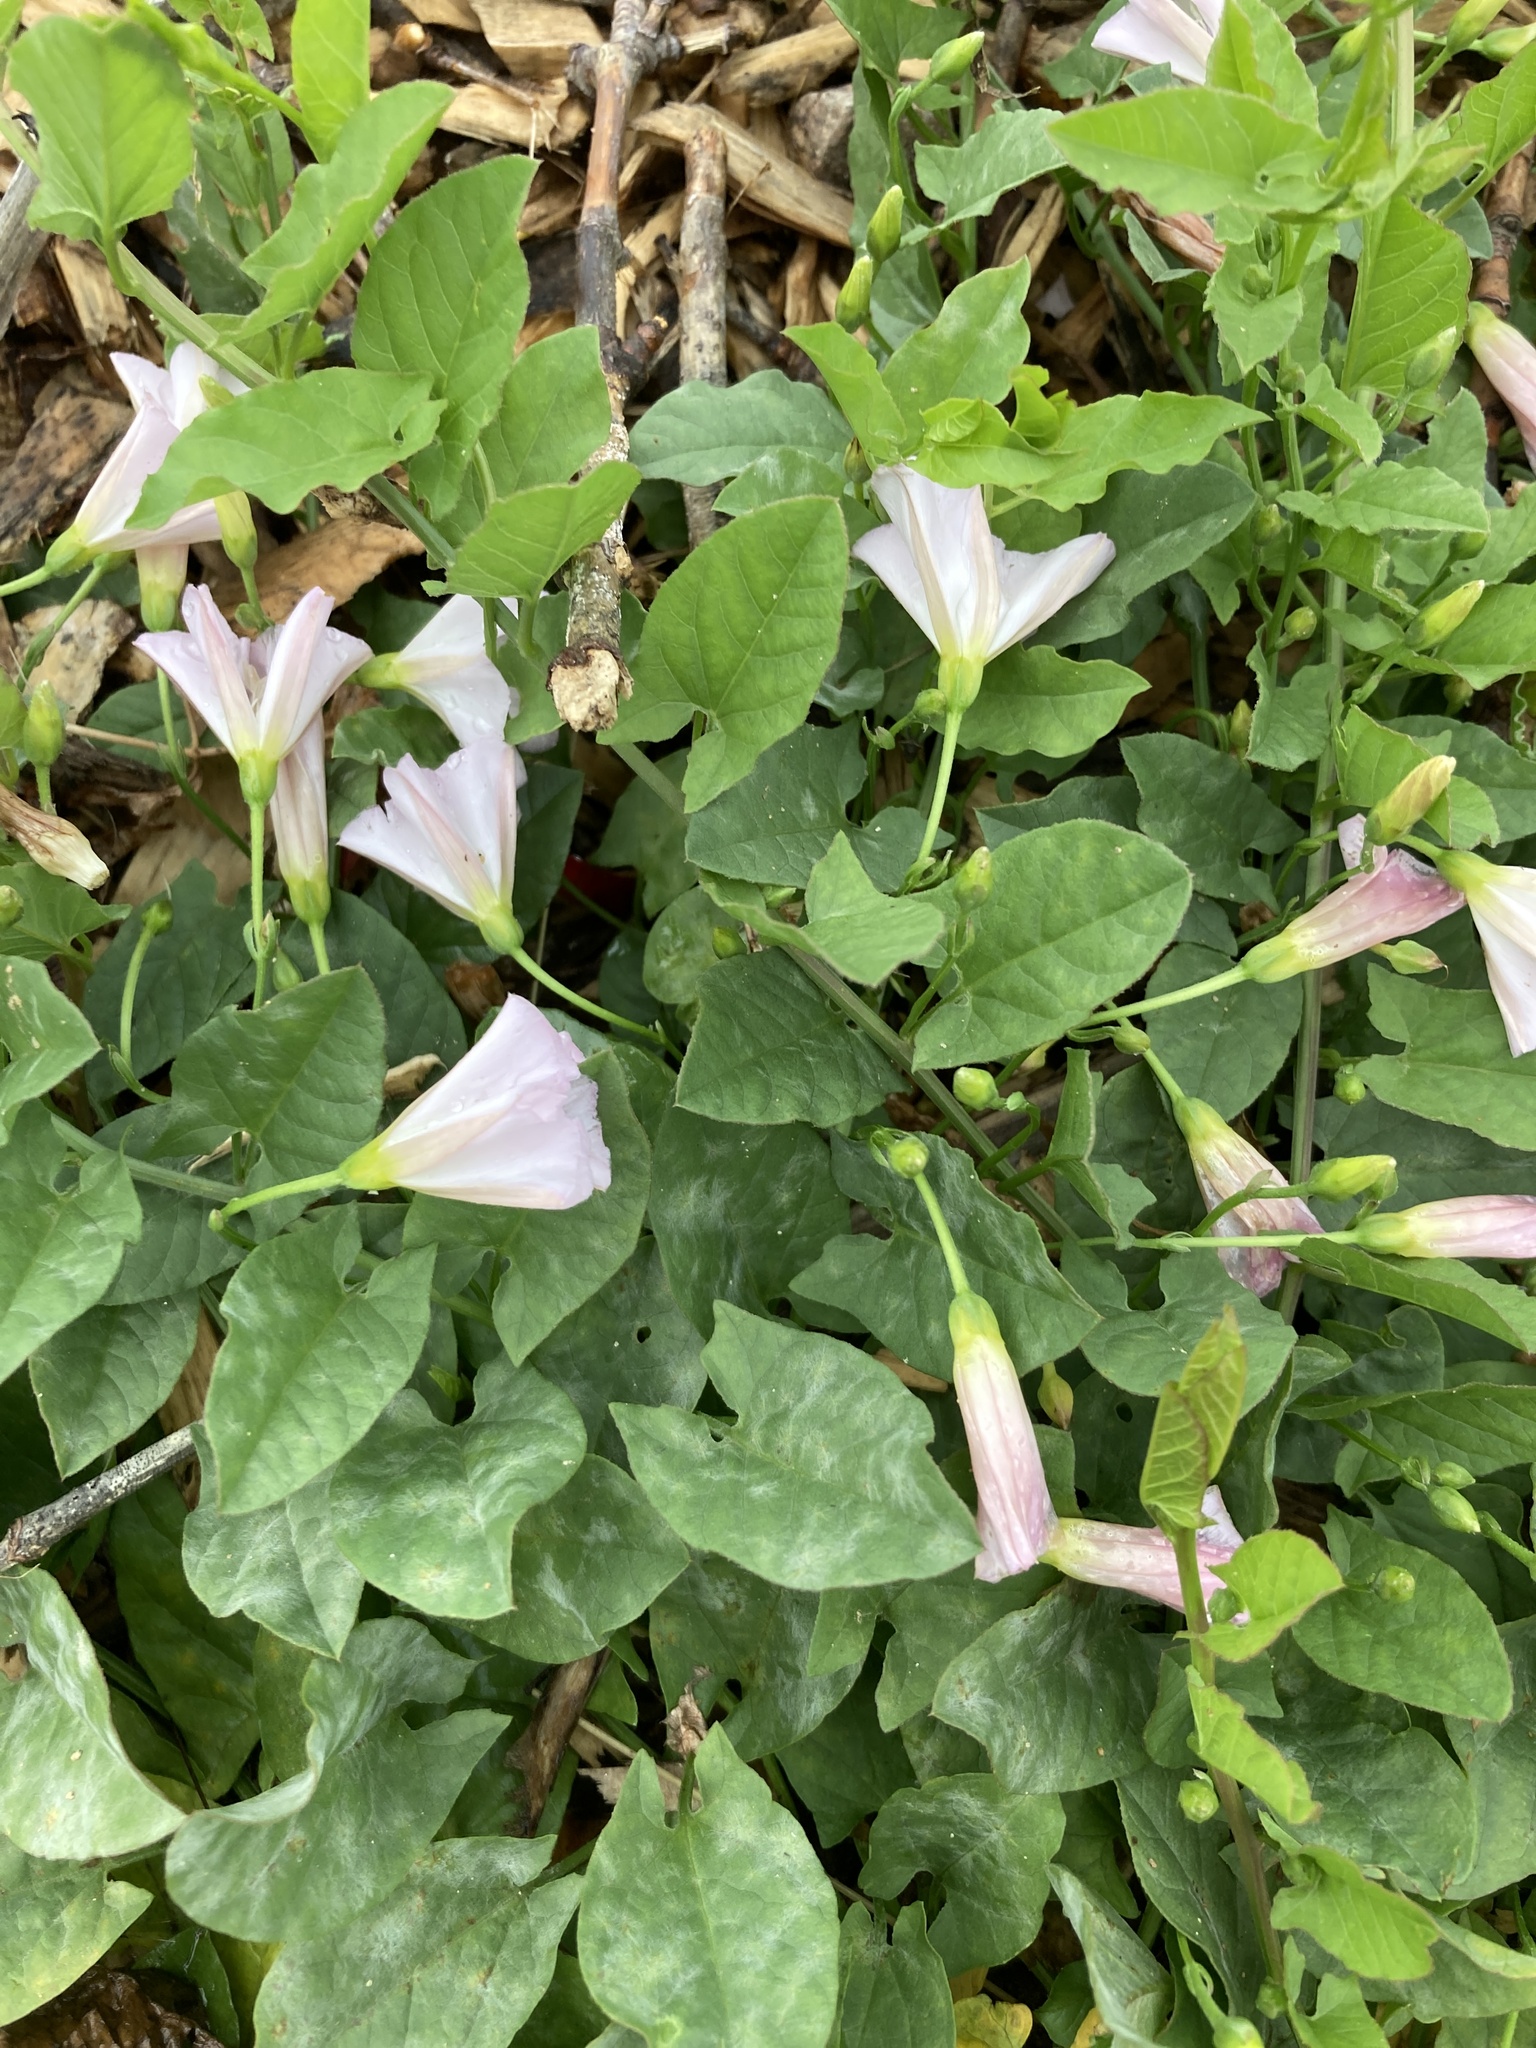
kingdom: Plantae
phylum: Tracheophyta
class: Magnoliopsida
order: Solanales
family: Convolvulaceae
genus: Convolvulus
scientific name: Convolvulus arvensis
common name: Field bindweed
